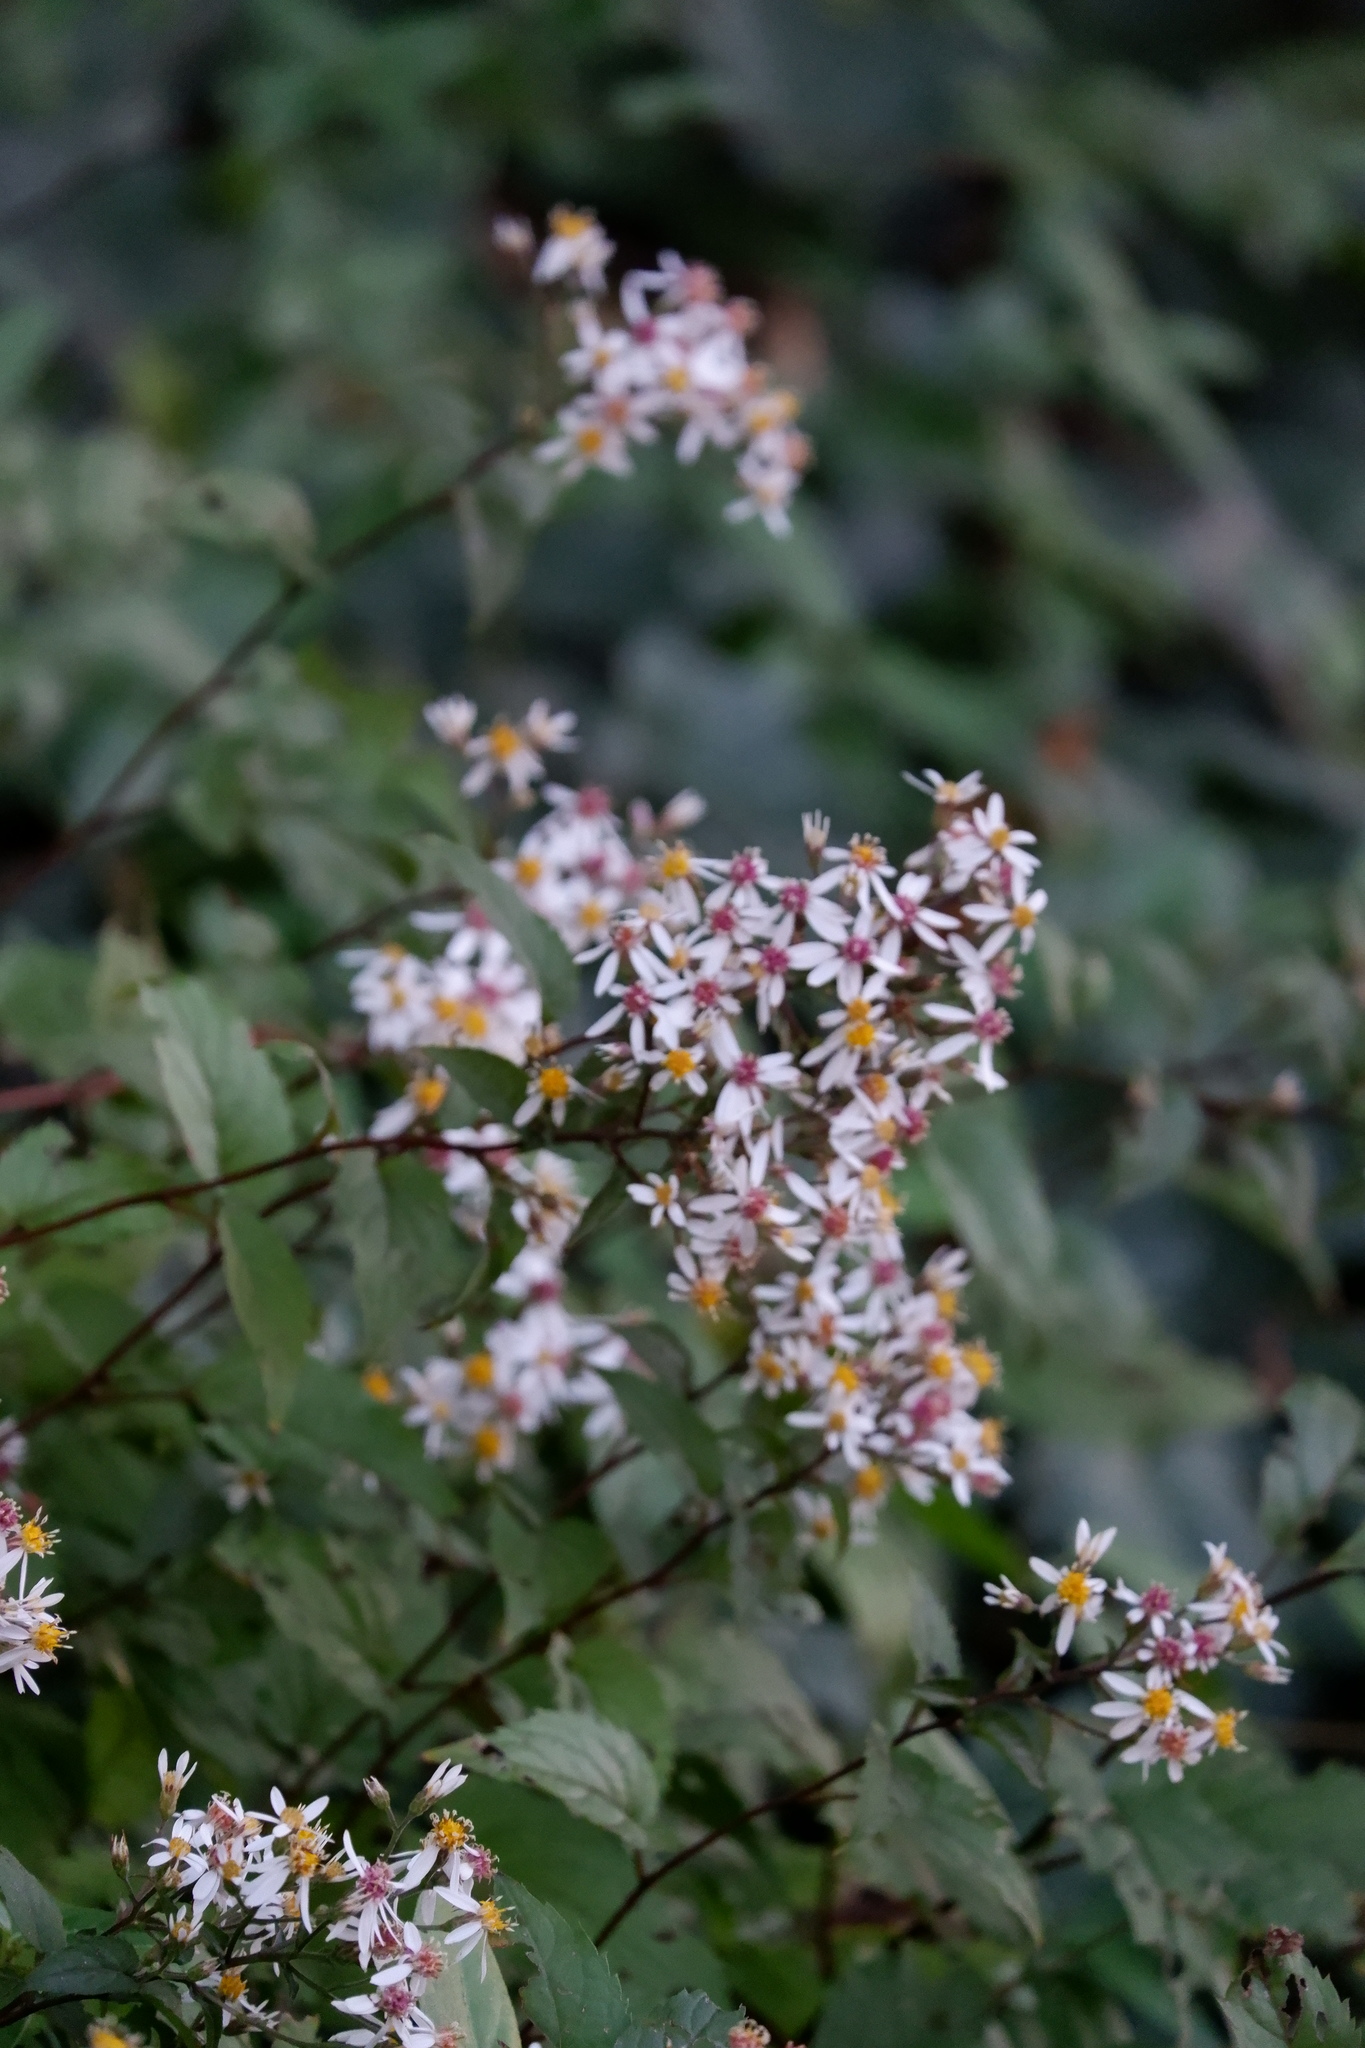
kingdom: Plantae
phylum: Tracheophyta
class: Magnoliopsida
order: Asterales
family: Asteraceae
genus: Eurybia
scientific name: Eurybia divaricata
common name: White wood aster
